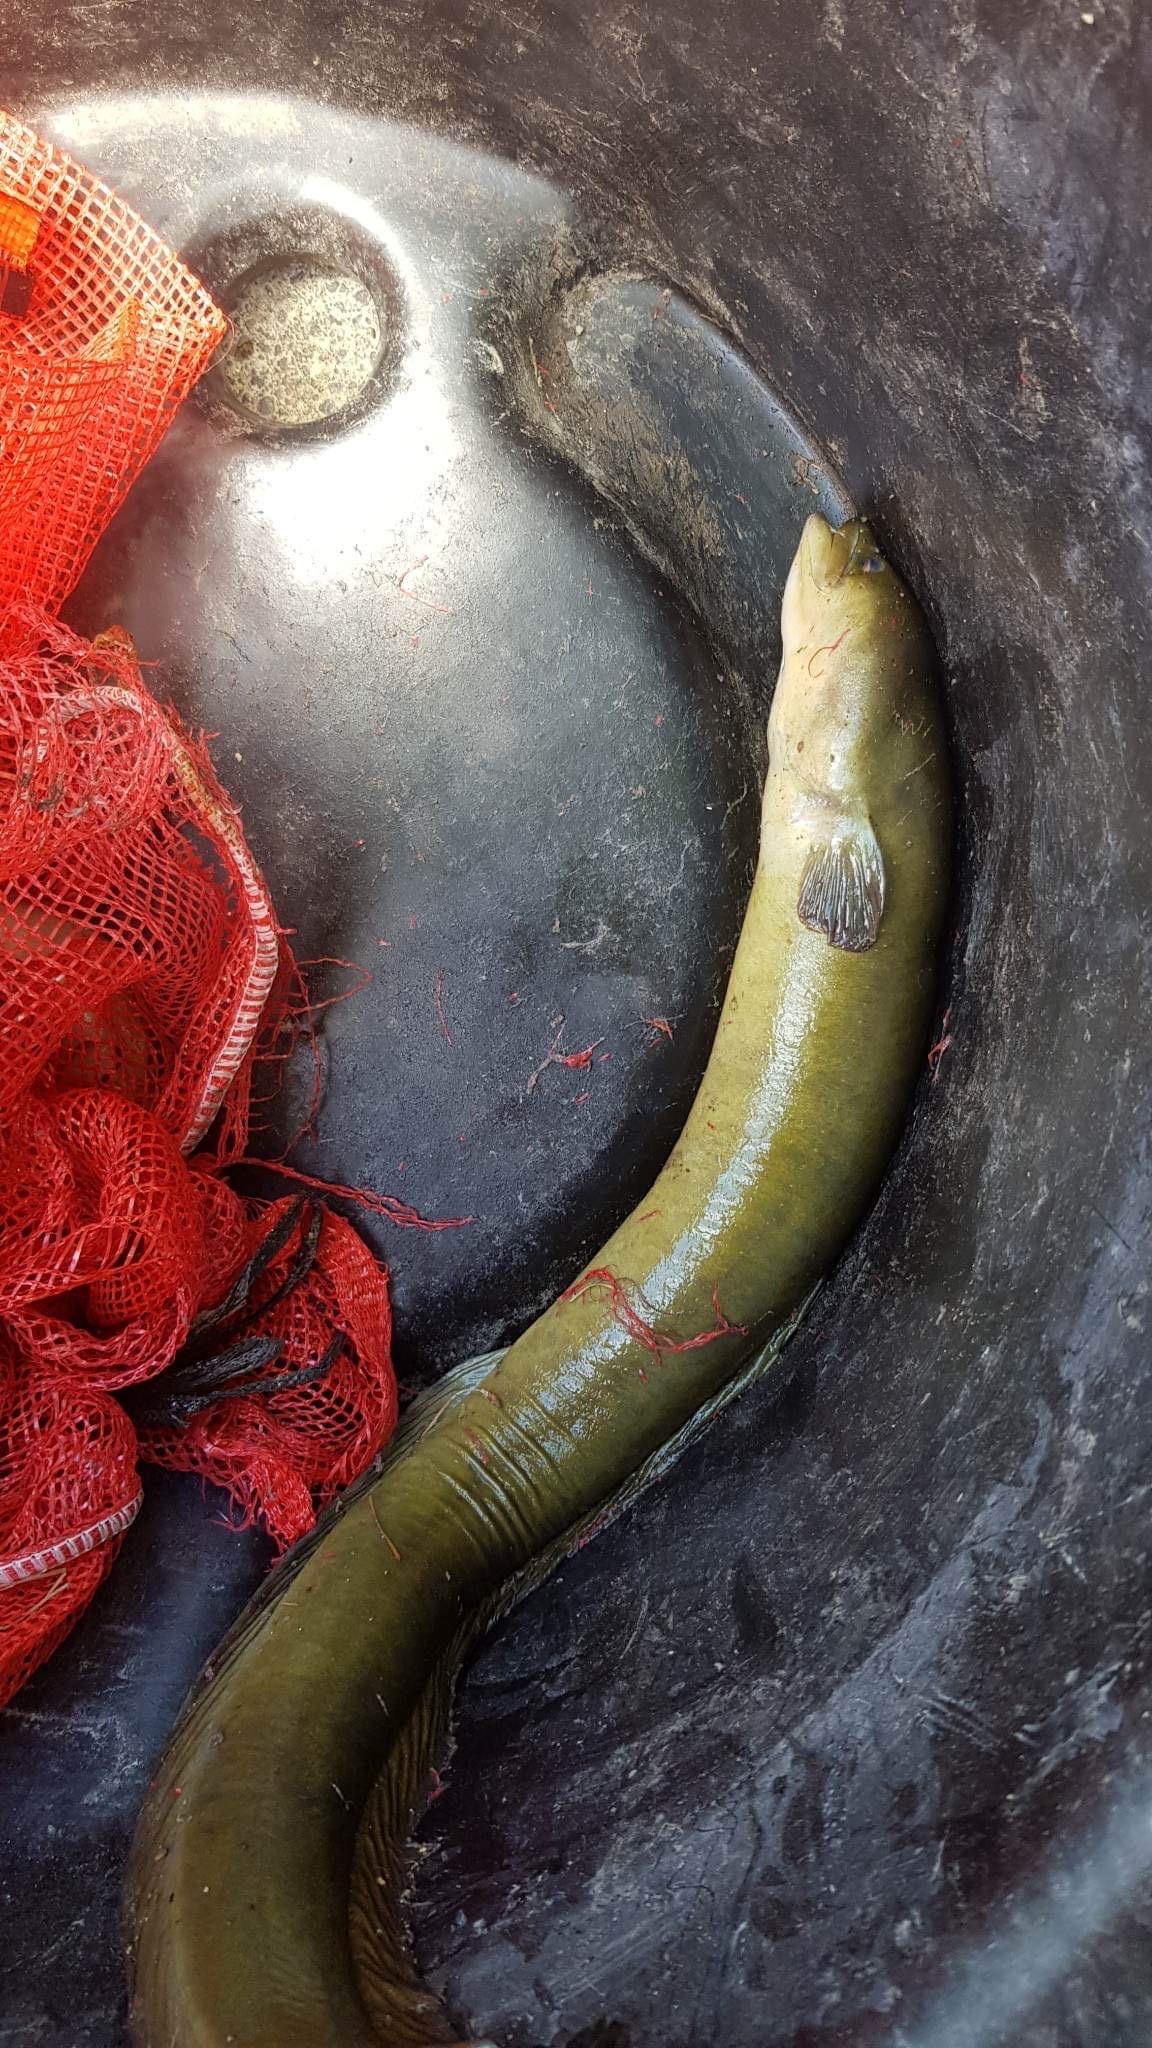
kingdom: Animalia
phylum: Chordata
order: Anguilliformes
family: Anguillidae
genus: Anguilla
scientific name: Anguilla dieffenbachii
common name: New zealand longfin eel
